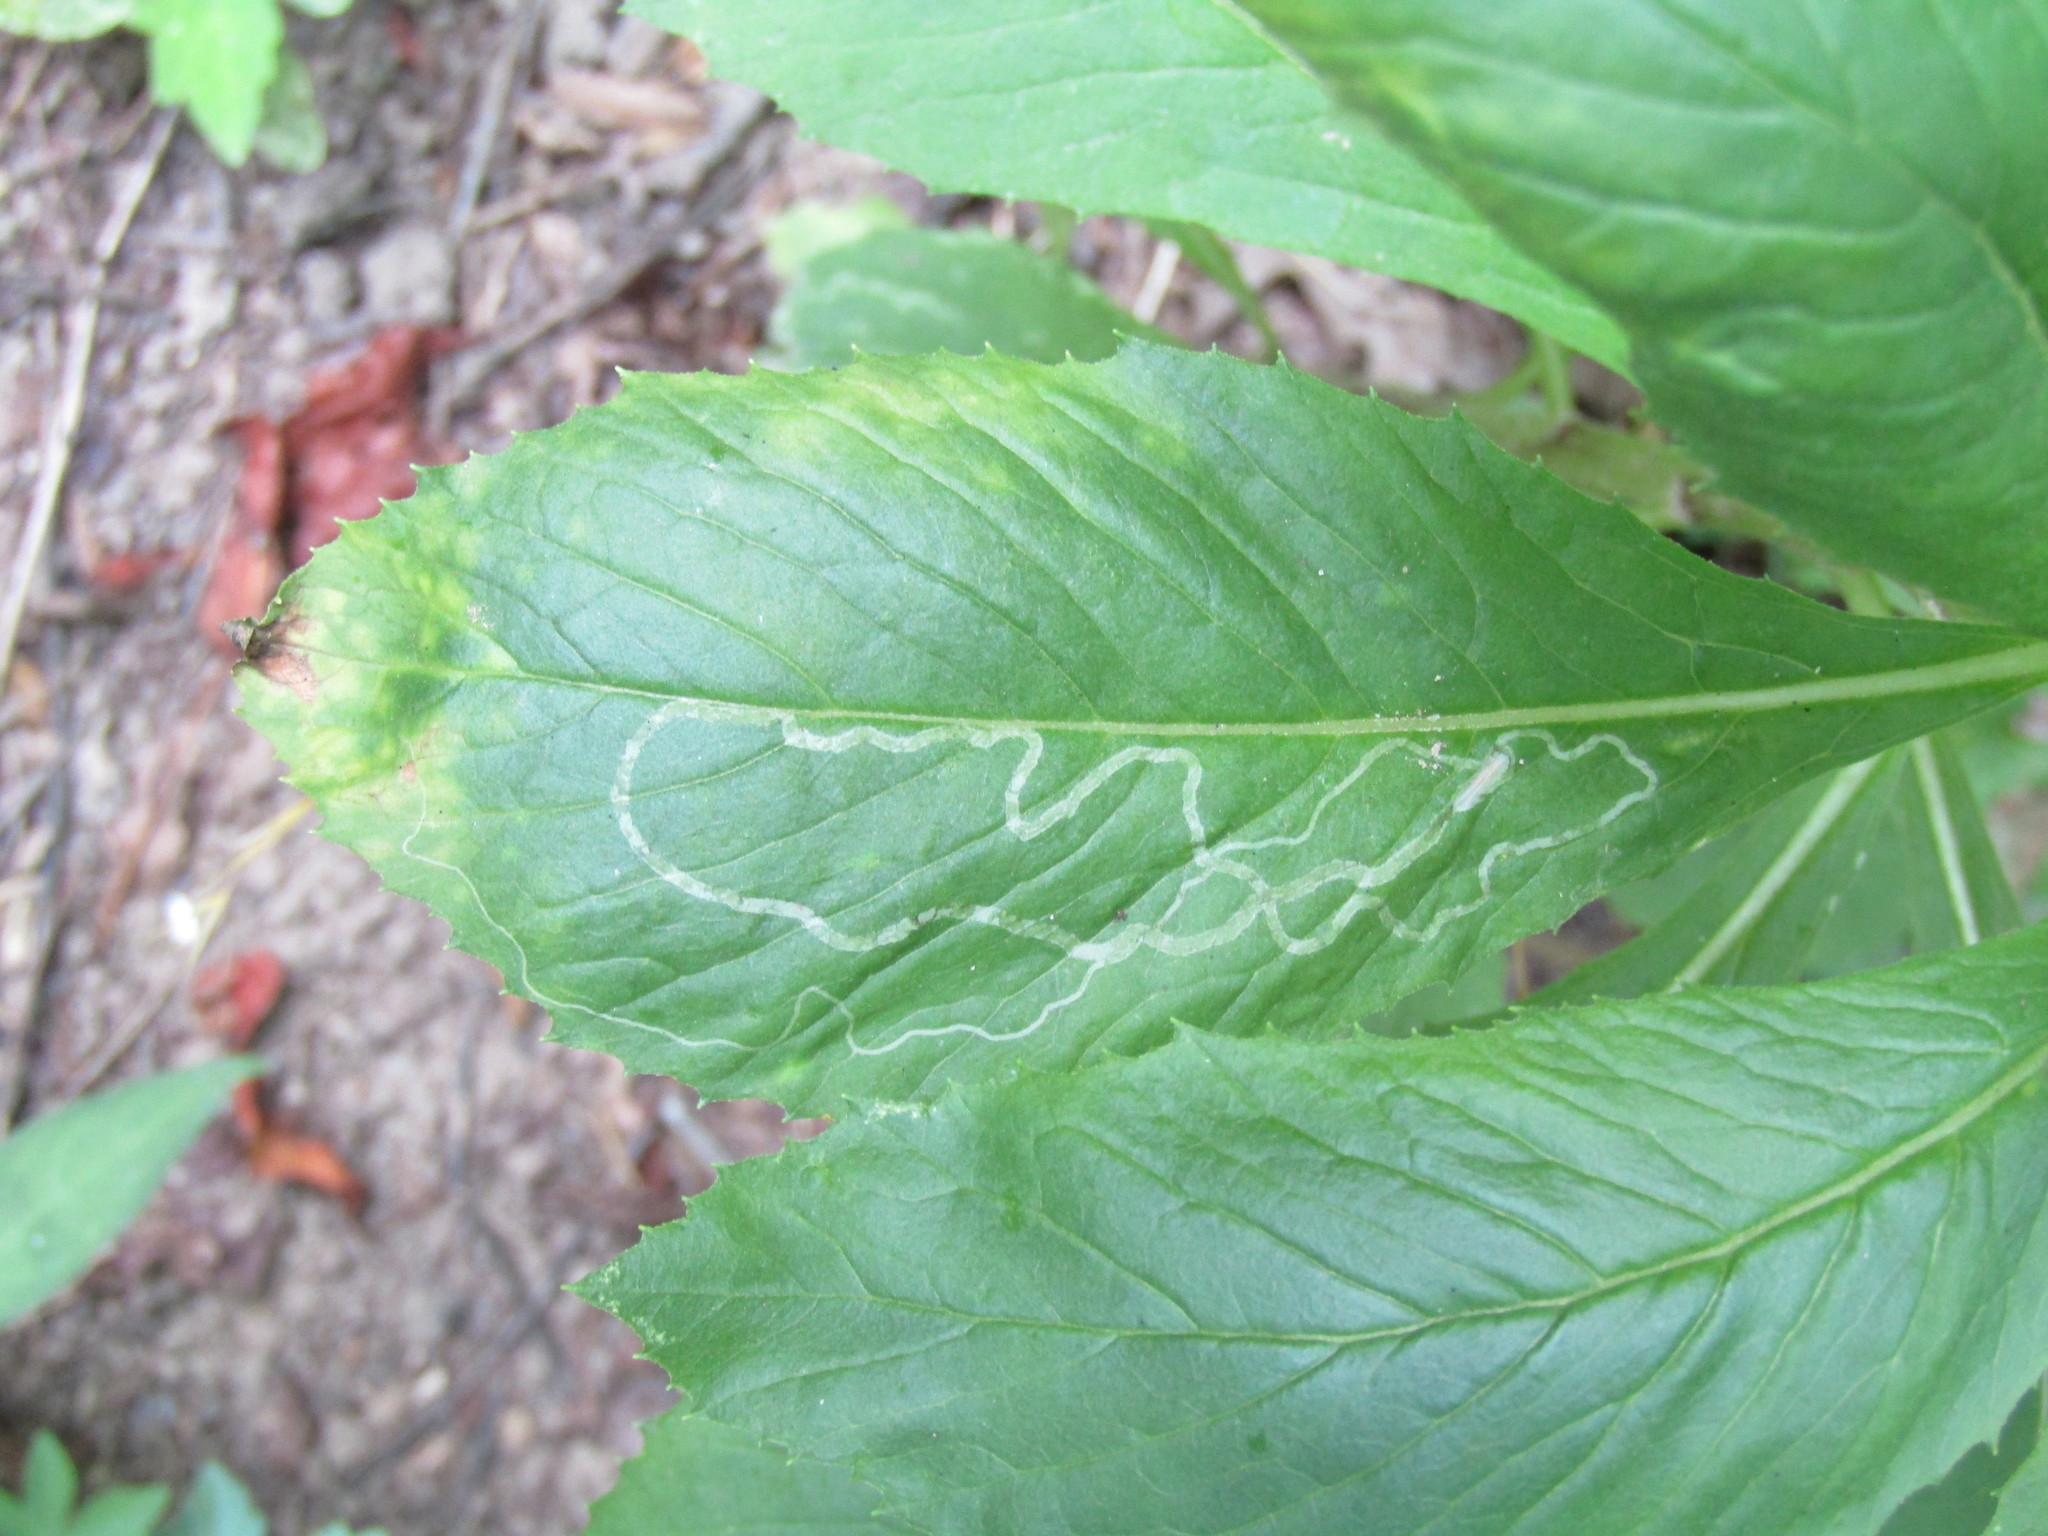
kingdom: Animalia
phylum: Arthropoda
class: Insecta
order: Lepidoptera
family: Gracillariidae
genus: Phyllocnistis
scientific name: Phyllocnistis insignis
